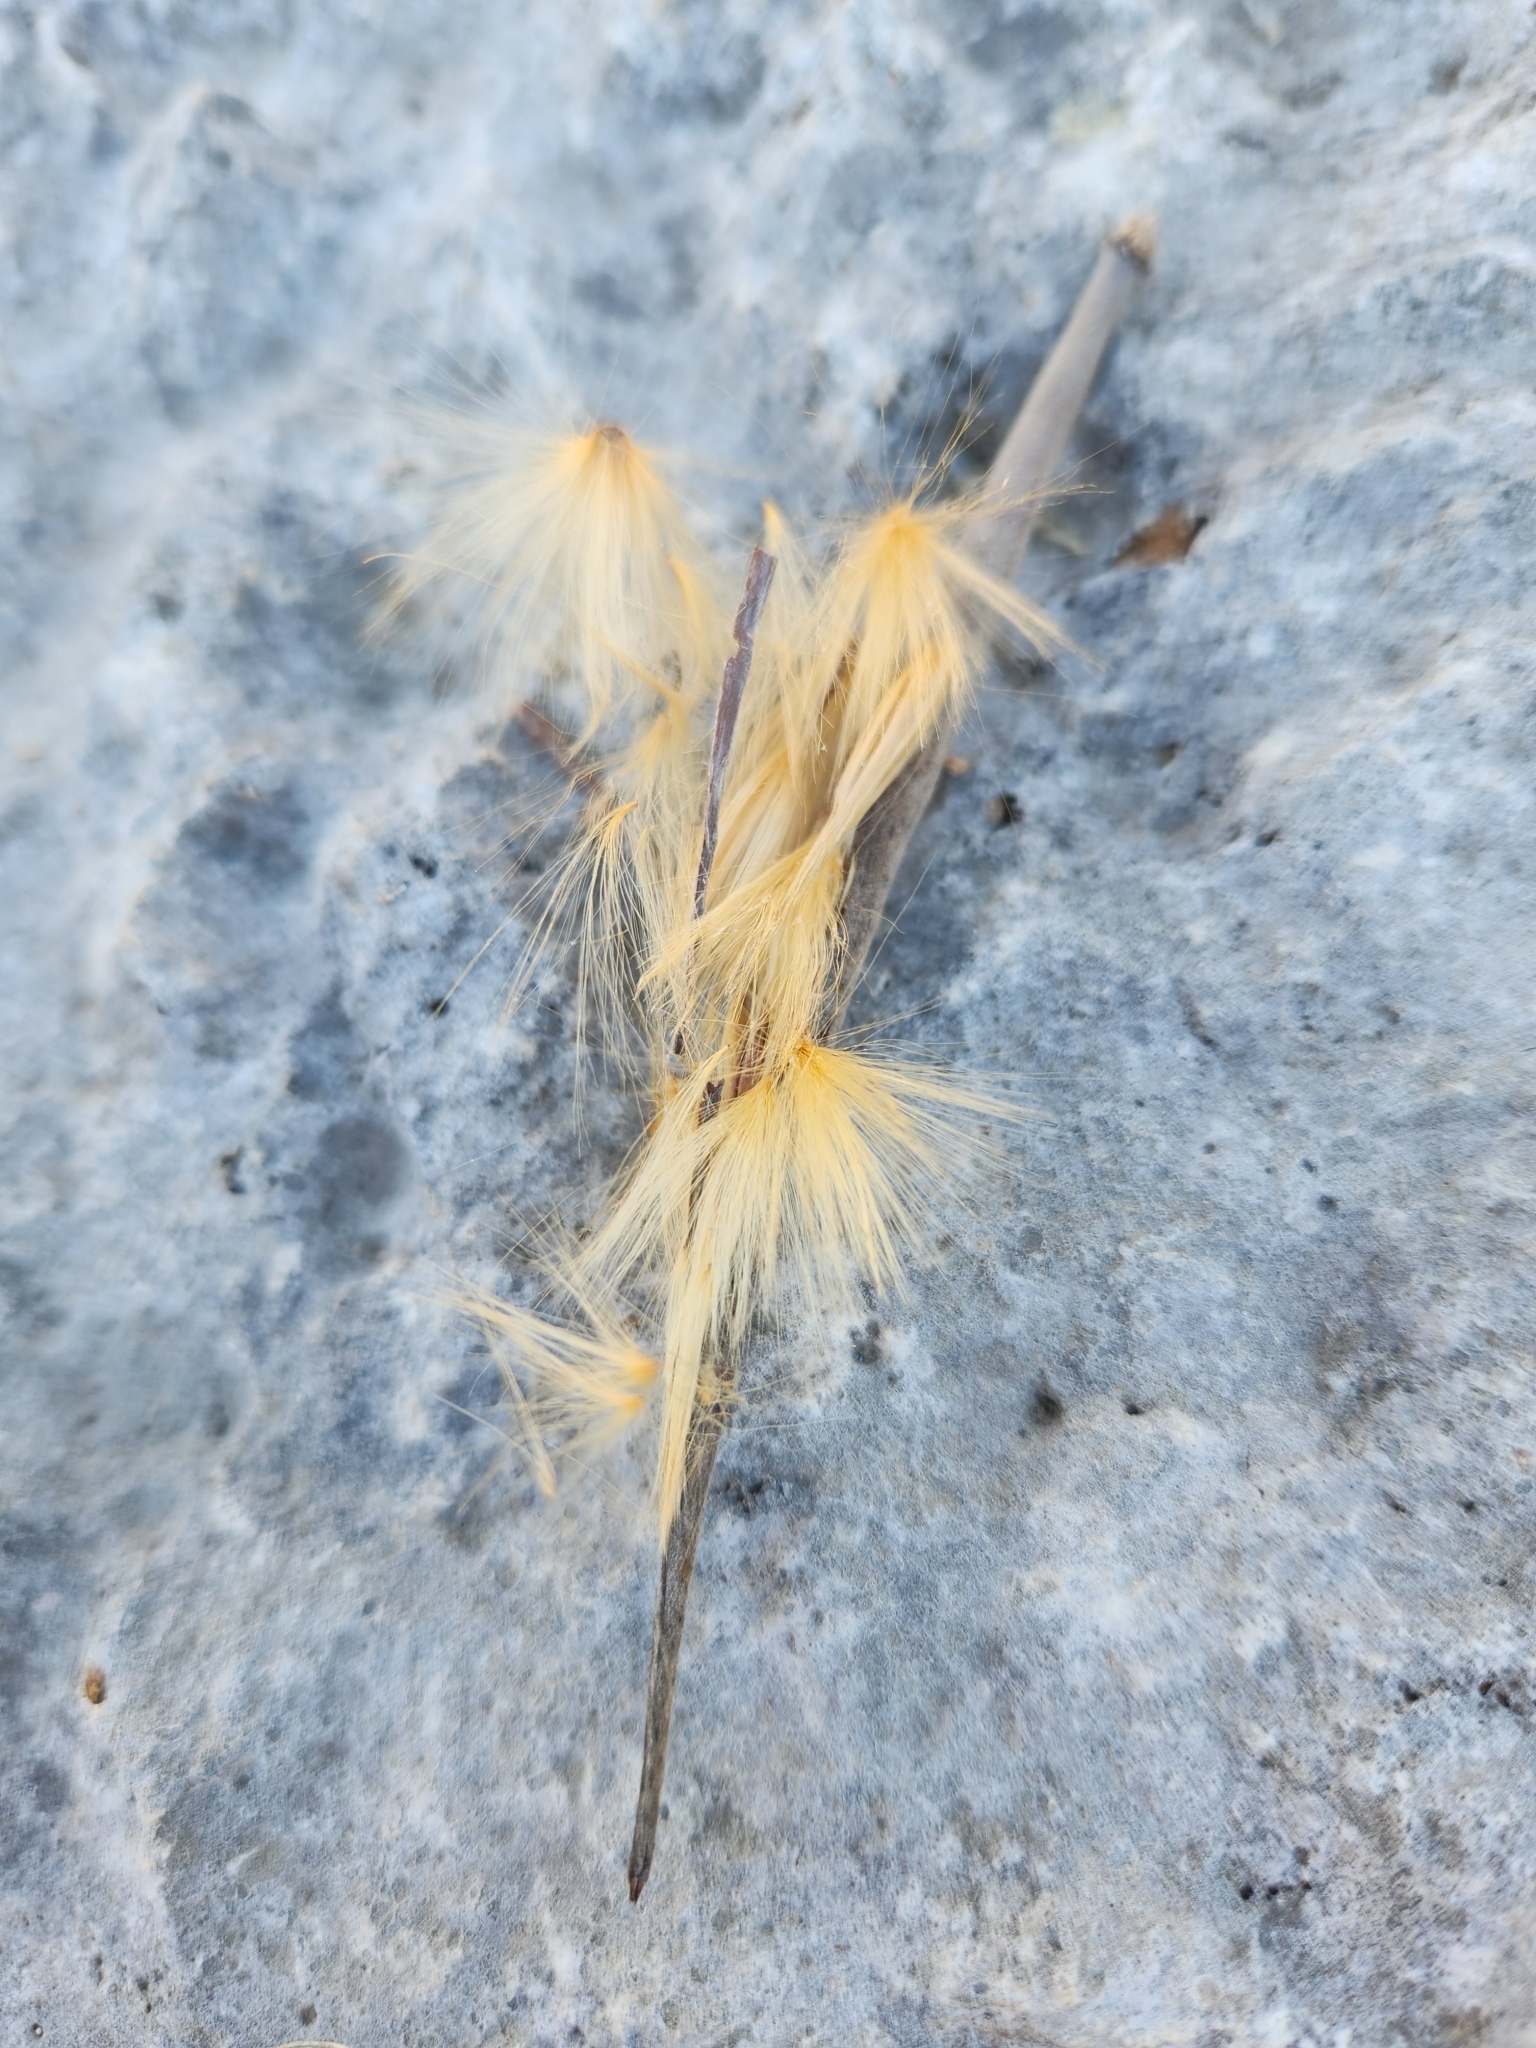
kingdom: Plantae
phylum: Tracheophyta
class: Magnoliopsida
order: Gentianales
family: Apocynaceae
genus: Mandevilla
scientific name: Mandevilla macrosiphon
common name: Plateau rocktrumpet
